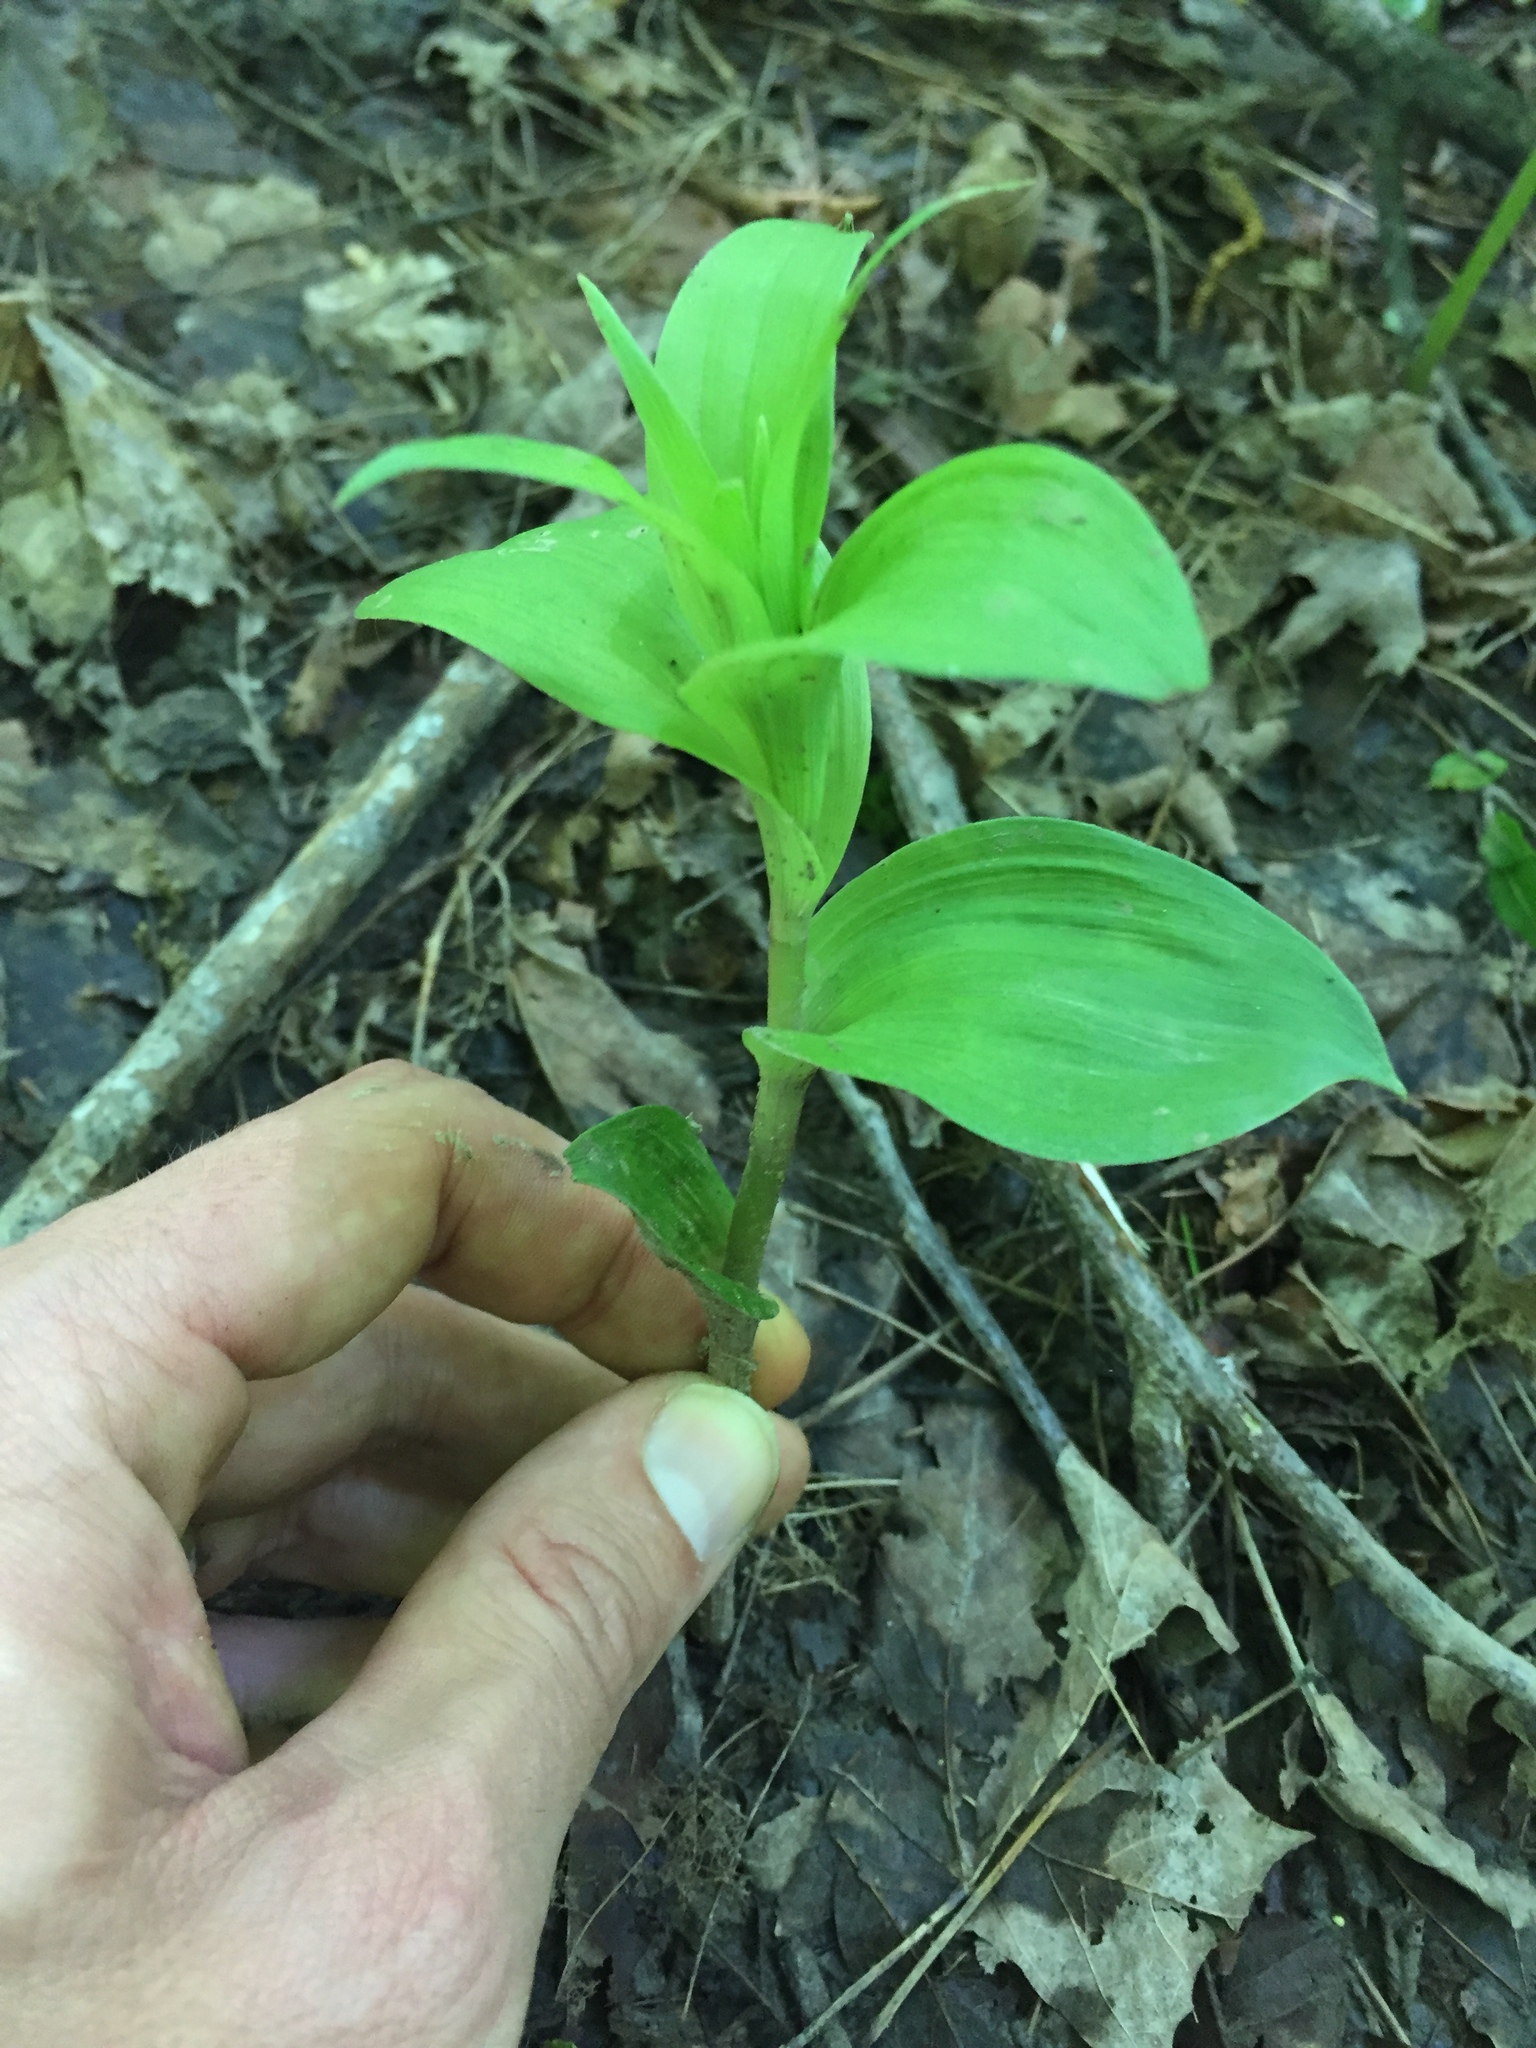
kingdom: Plantae
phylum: Tracheophyta
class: Liliopsida
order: Asparagales
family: Orchidaceae
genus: Epipactis
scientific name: Epipactis helleborine
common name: Broad-leaved helleborine
